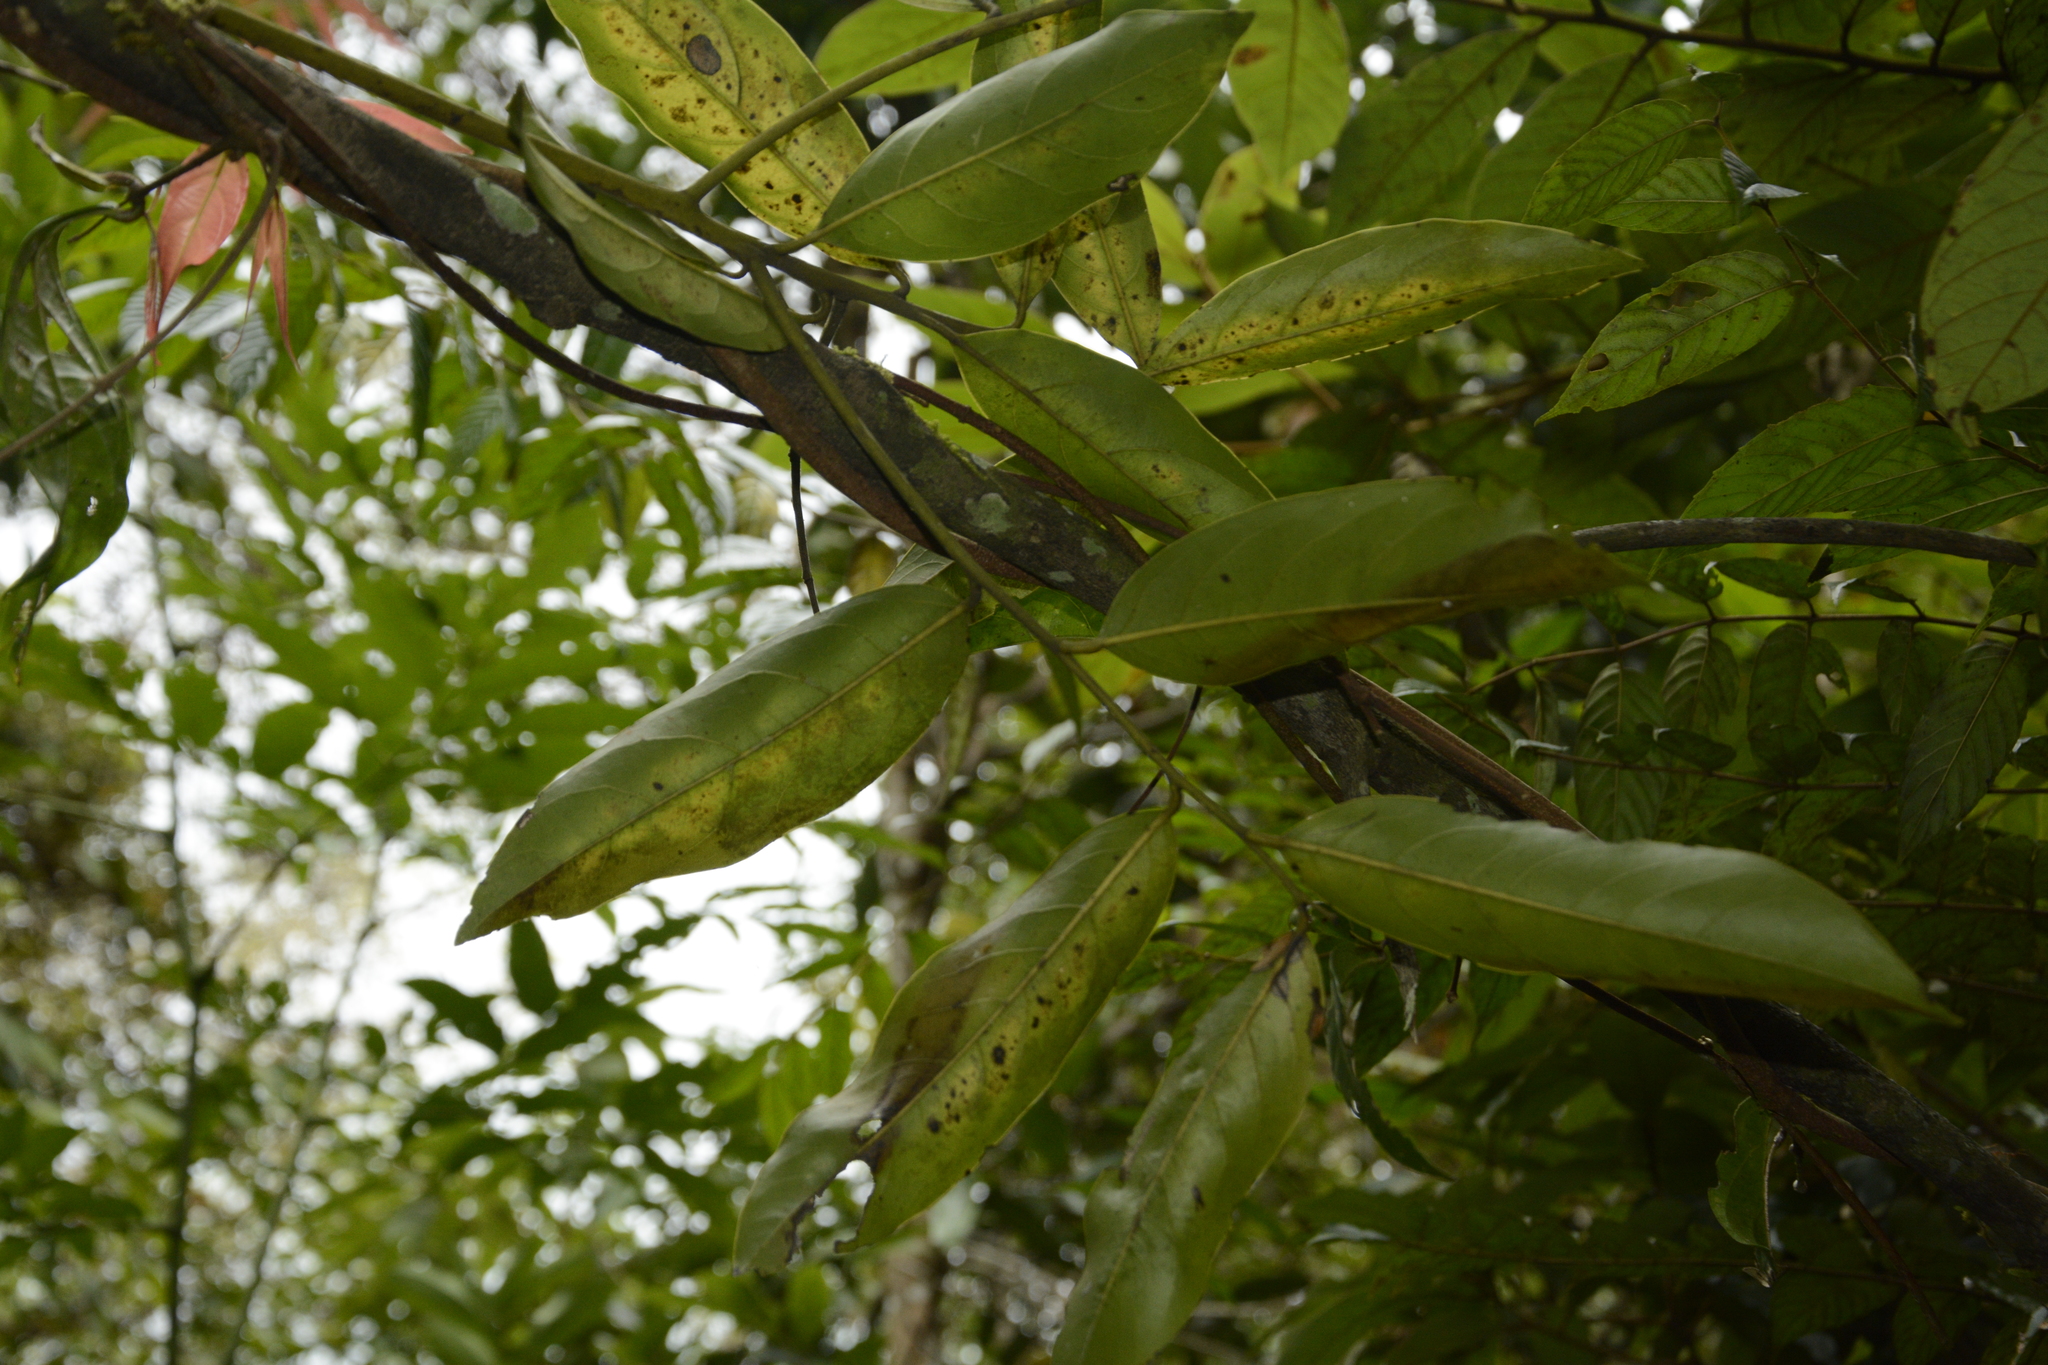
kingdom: Plantae
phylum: Tracheophyta
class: Magnoliopsida
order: Malpighiales
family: Malpighiaceae
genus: Hiptage
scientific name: Hiptage benghalensis
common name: Hiptage
